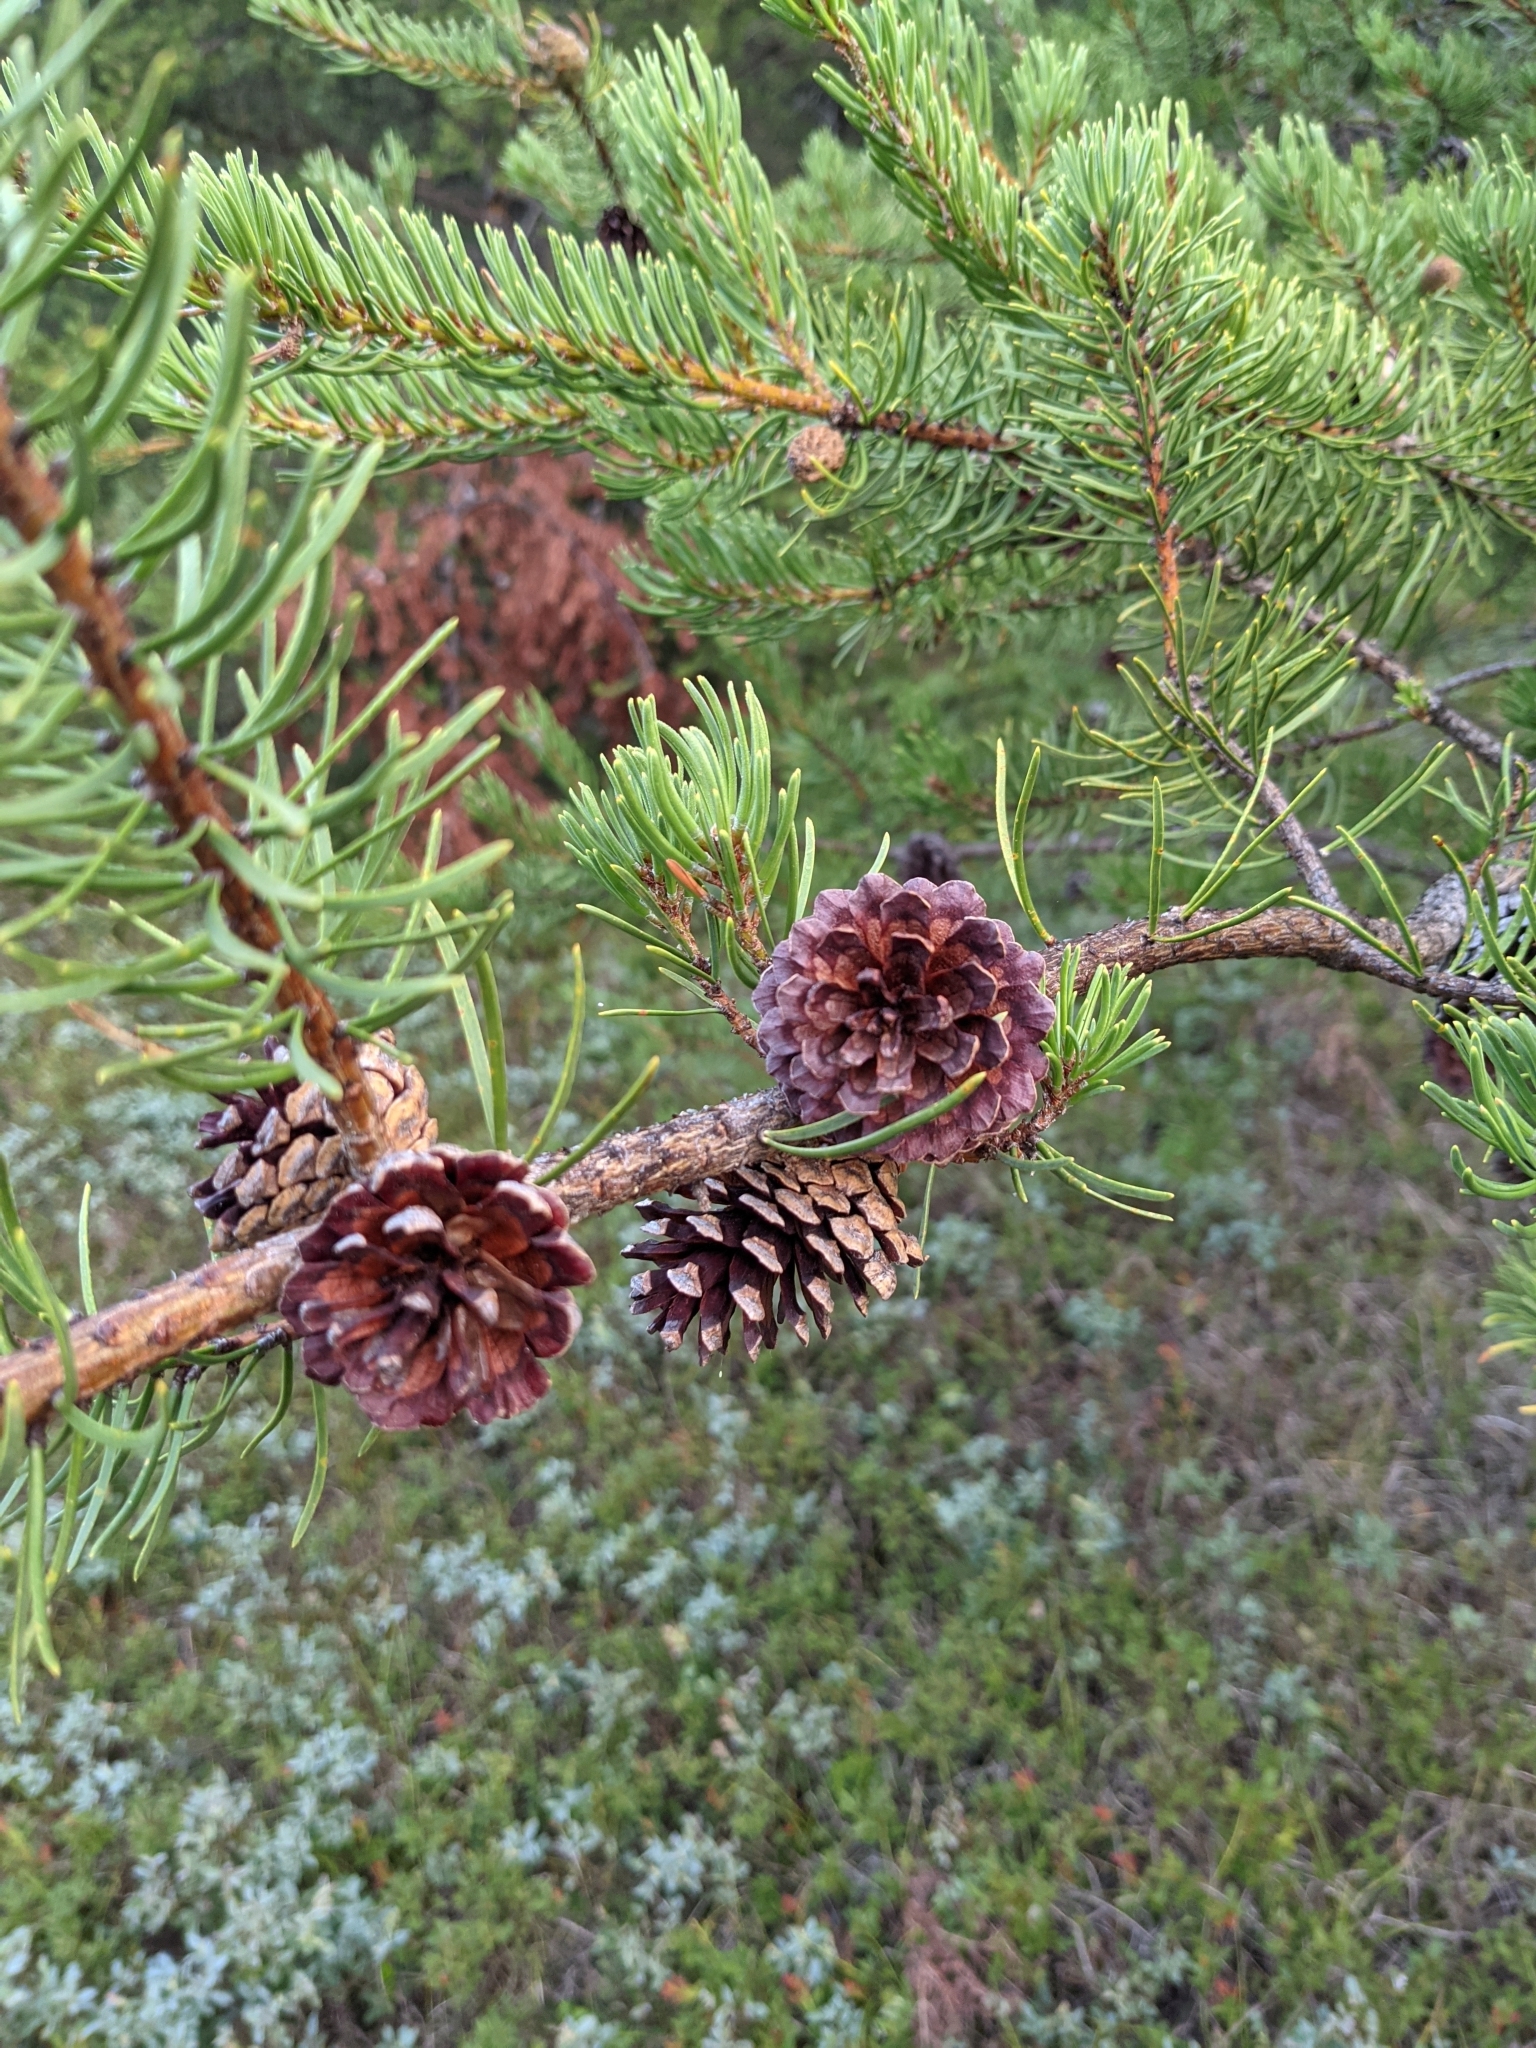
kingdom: Plantae
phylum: Tracheophyta
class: Pinopsida
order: Pinales
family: Pinaceae
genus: Pinus
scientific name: Pinus banksiana
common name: Jack pine
